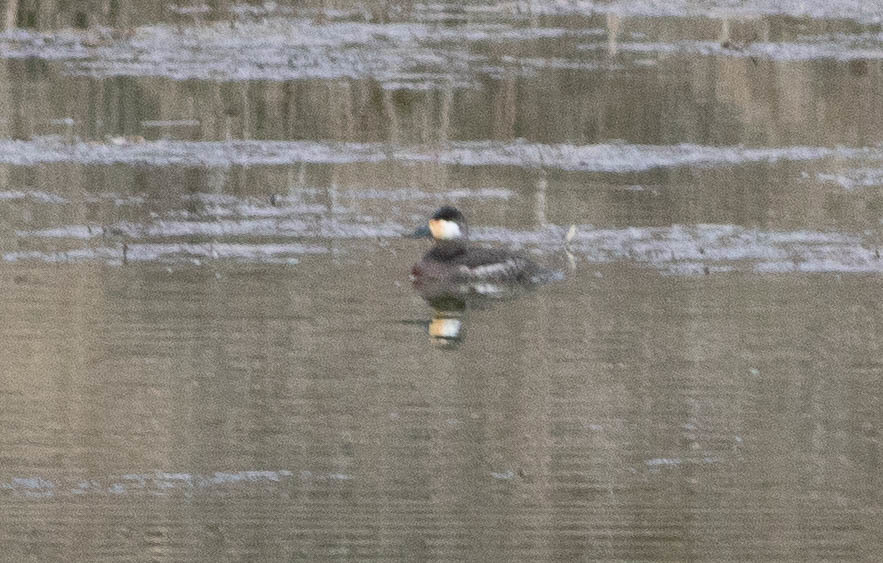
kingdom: Animalia
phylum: Chordata
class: Aves
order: Anseriformes
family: Anatidae
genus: Oxyura
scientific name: Oxyura jamaicensis
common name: Ruddy duck
